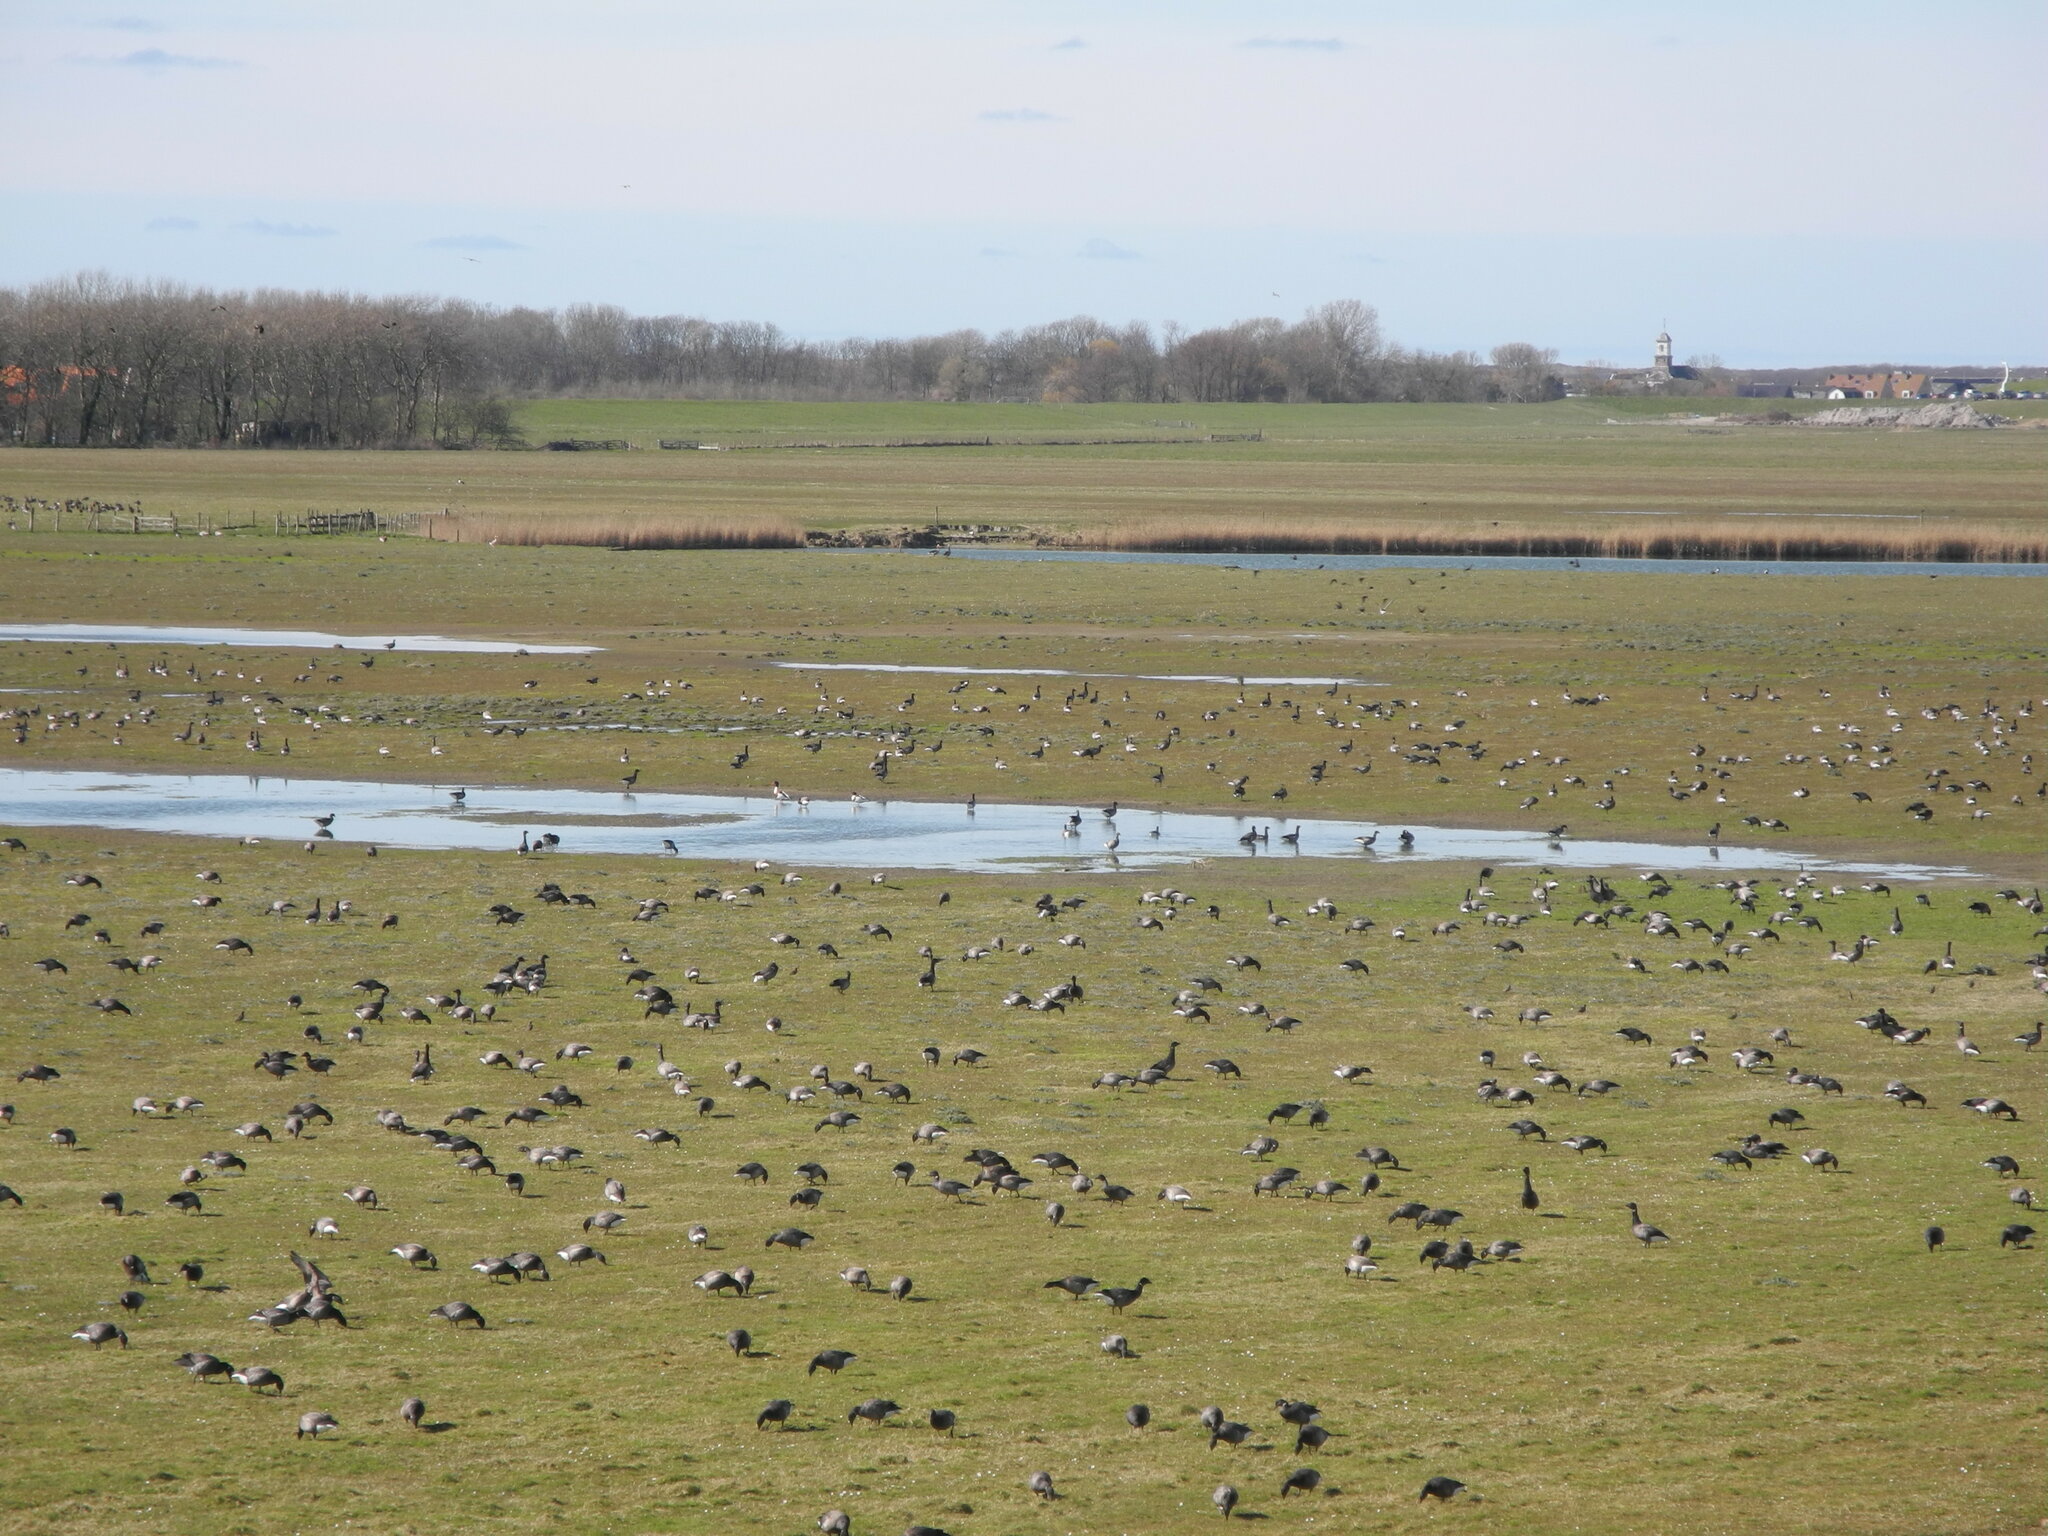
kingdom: Animalia
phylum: Chordata
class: Aves
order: Anseriformes
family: Anatidae
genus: Branta
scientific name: Branta bernicla
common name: Brant goose
